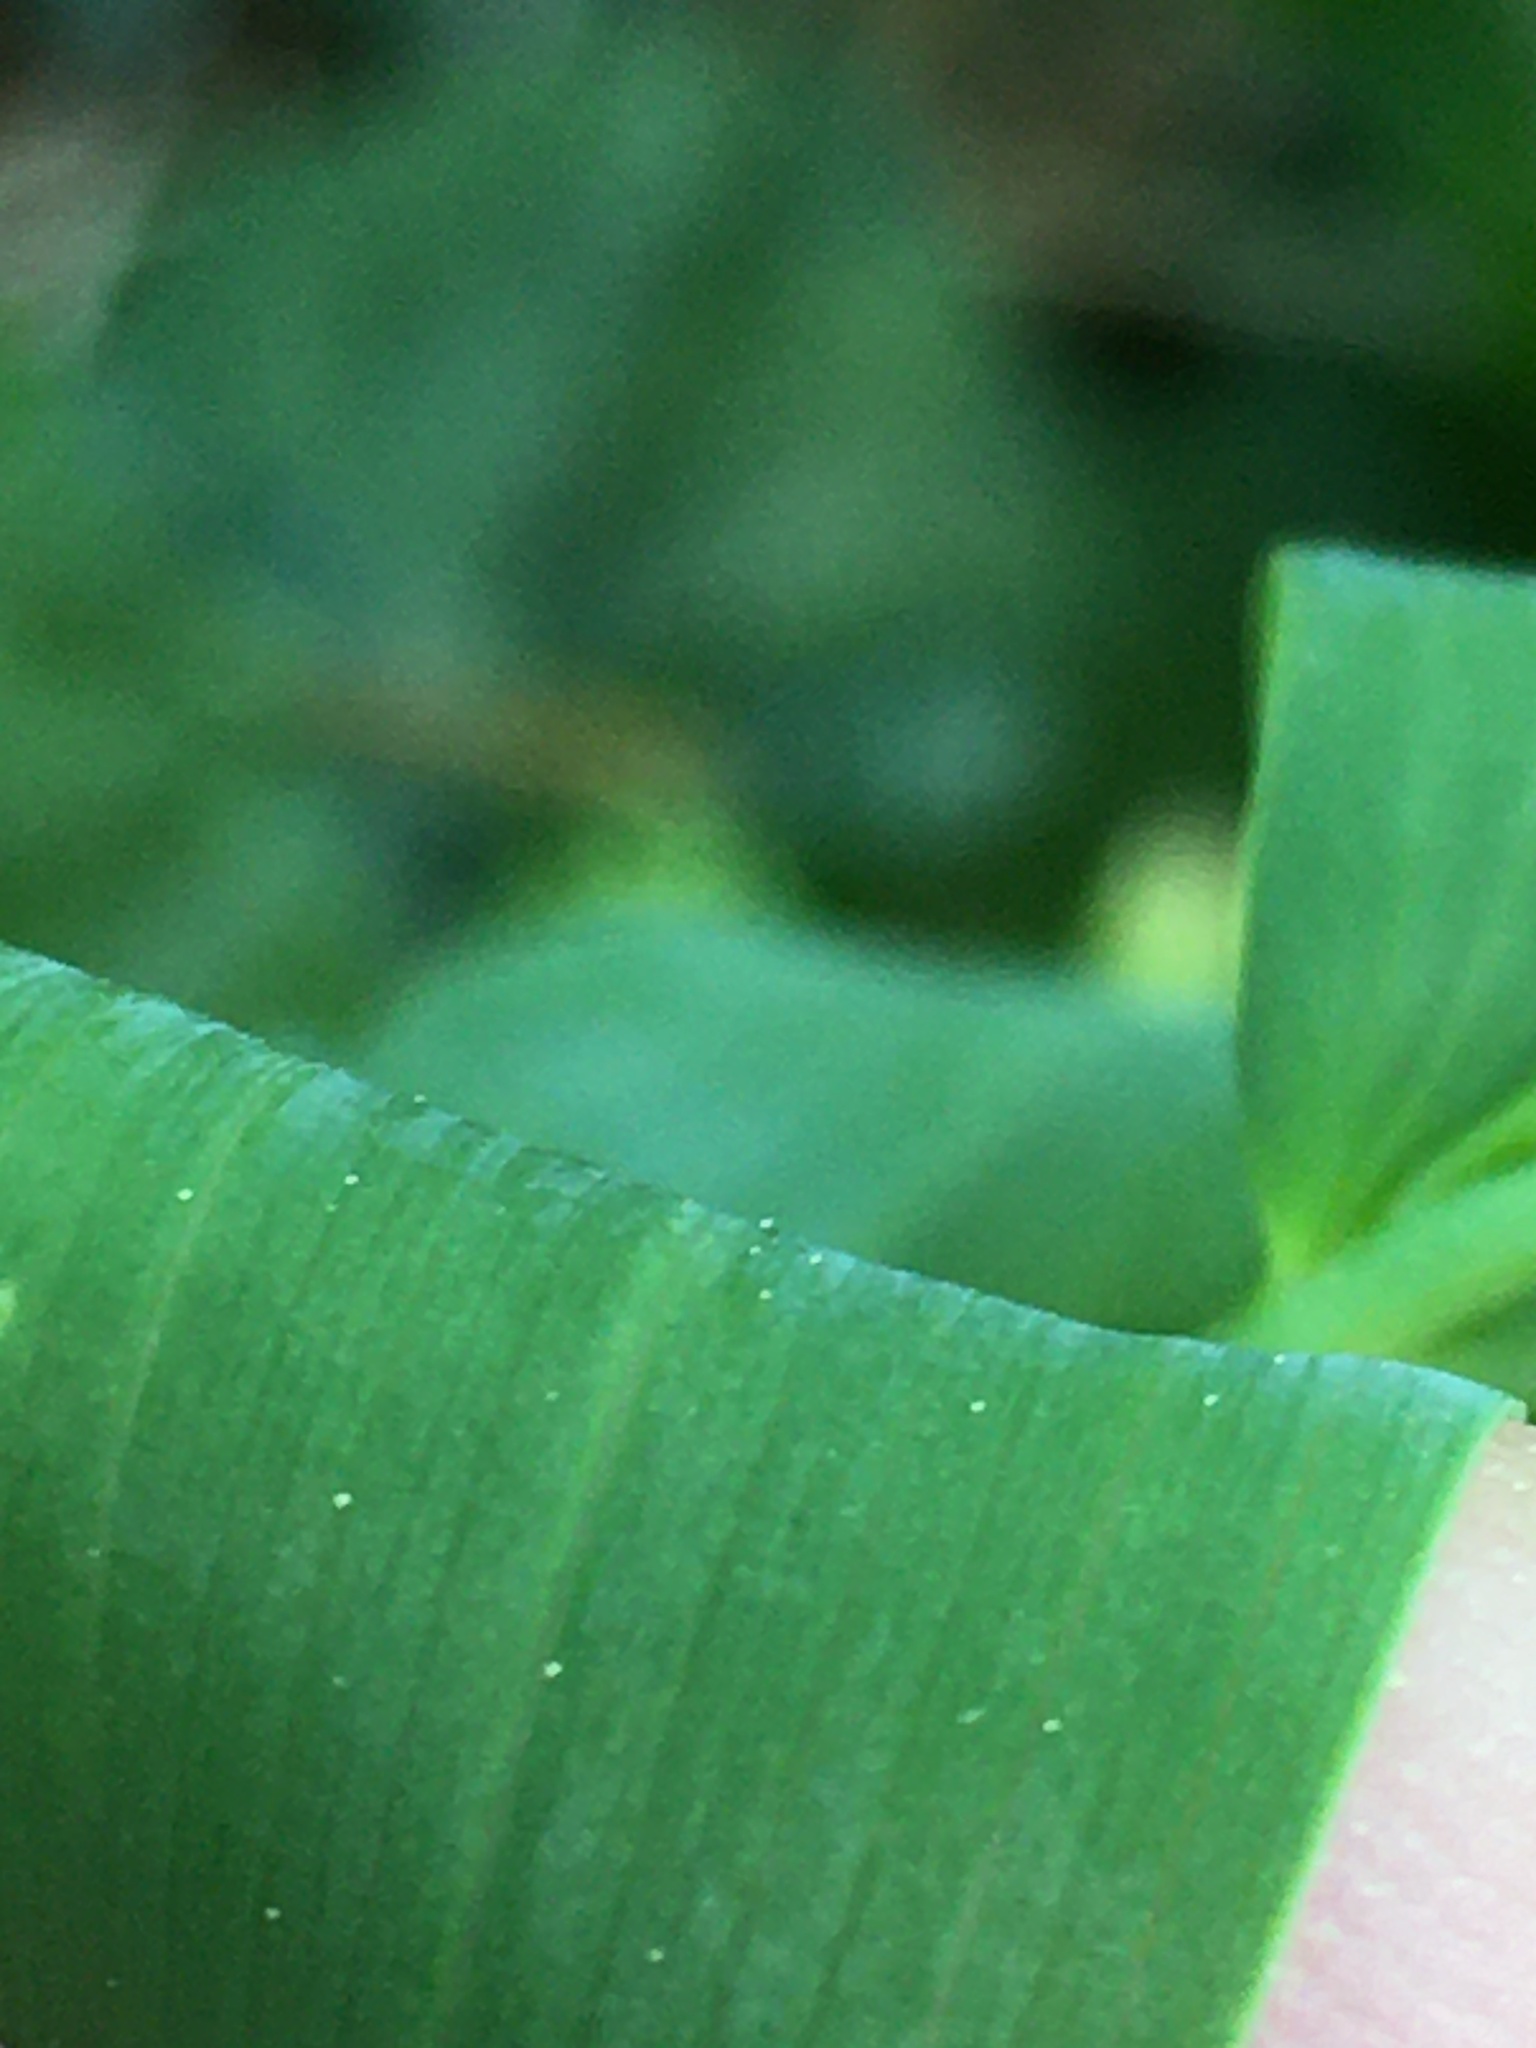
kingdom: Plantae
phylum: Tracheophyta
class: Liliopsida
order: Asparagales
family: Asparagaceae
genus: Polygonatum
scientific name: Polygonatum biflorum
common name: American solomon's-seal
